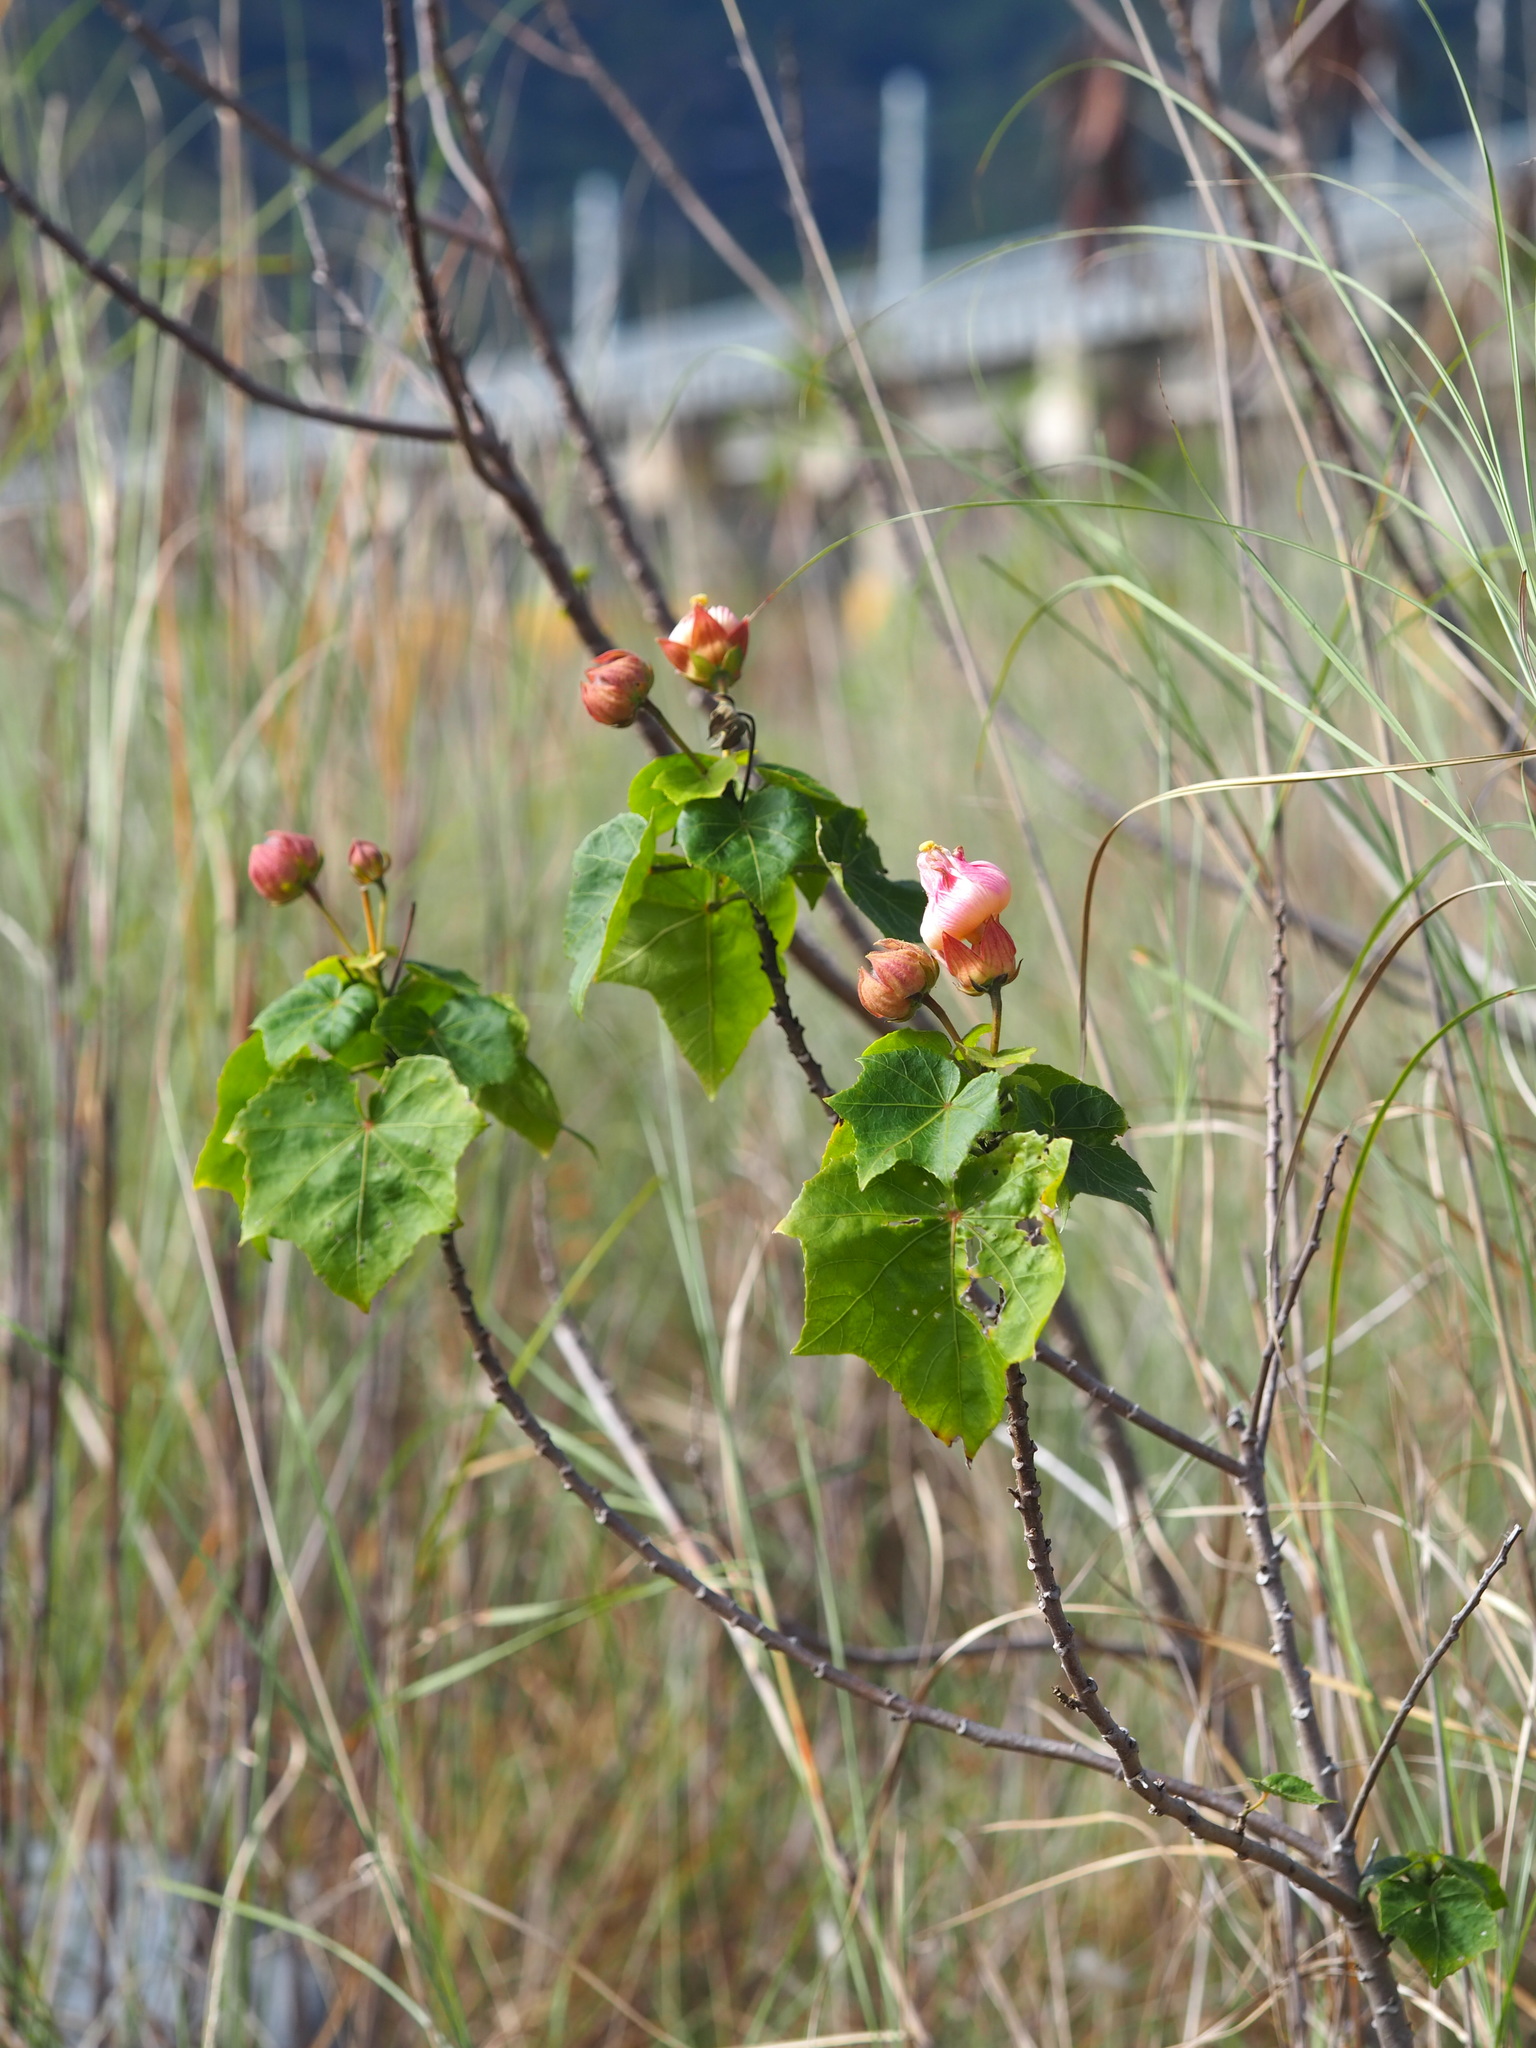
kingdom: Plantae
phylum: Tracheophyta
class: Magnoliopsida
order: Malvales
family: Malvaceae
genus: Hibiscus
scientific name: Hibiscus taiwanensis
